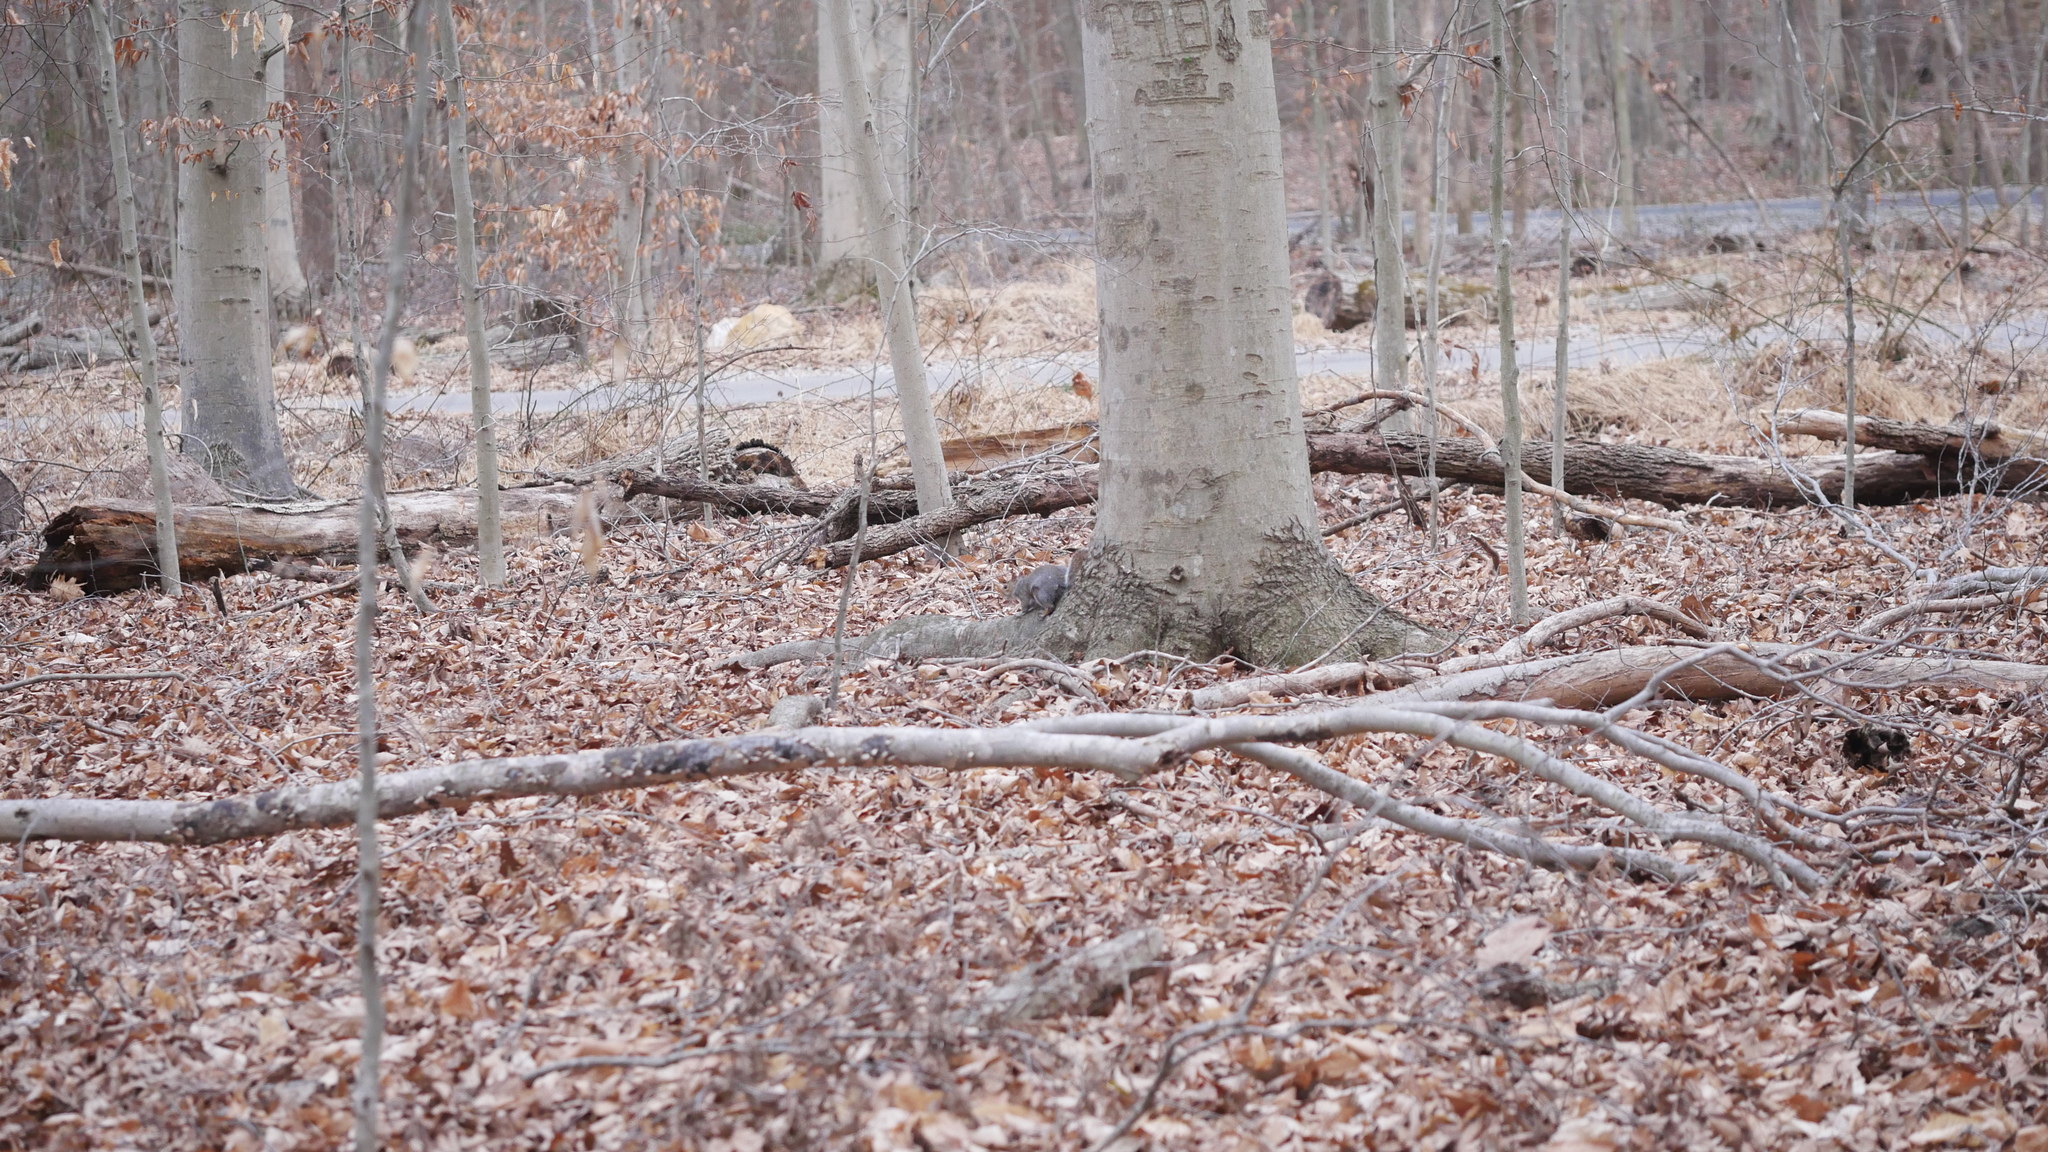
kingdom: Animalia
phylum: Chordata
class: Mammalia
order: Rodentia
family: Sciuridae
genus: Sciurus
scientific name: Sciurus carolinensis
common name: Eastern gray squirrel
